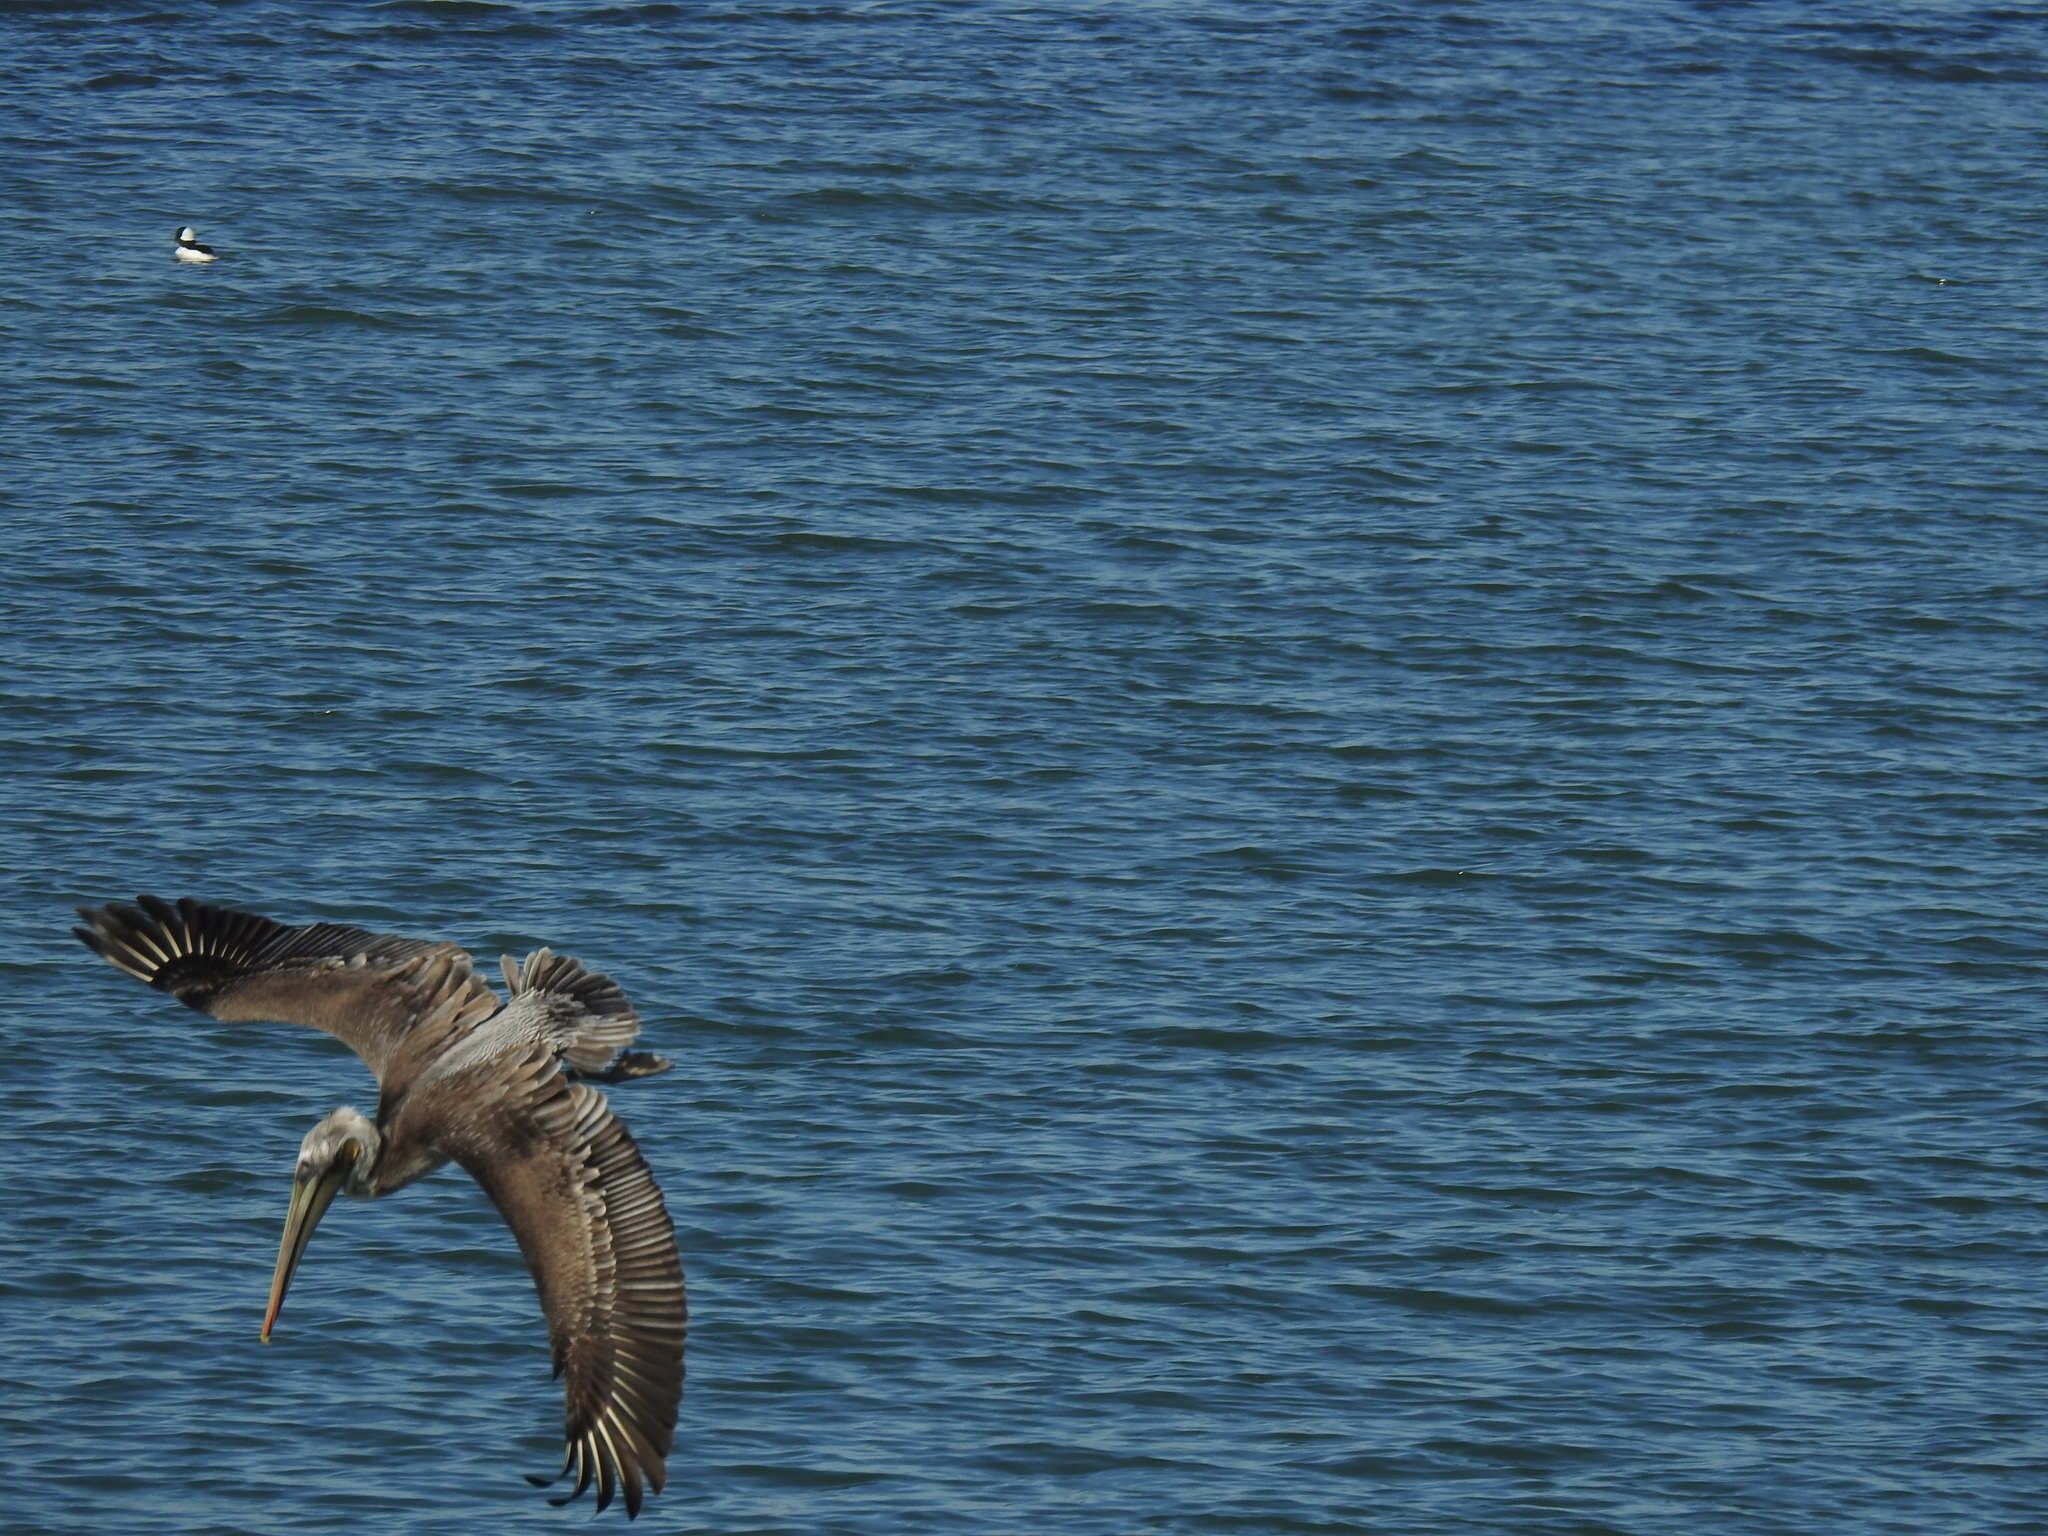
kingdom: Animalia
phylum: Chordata
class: Aves
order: Pelecaniformes
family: Pelecanidae
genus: Pelecanus
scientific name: Pelecanus occidentalis
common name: Brown pelican
